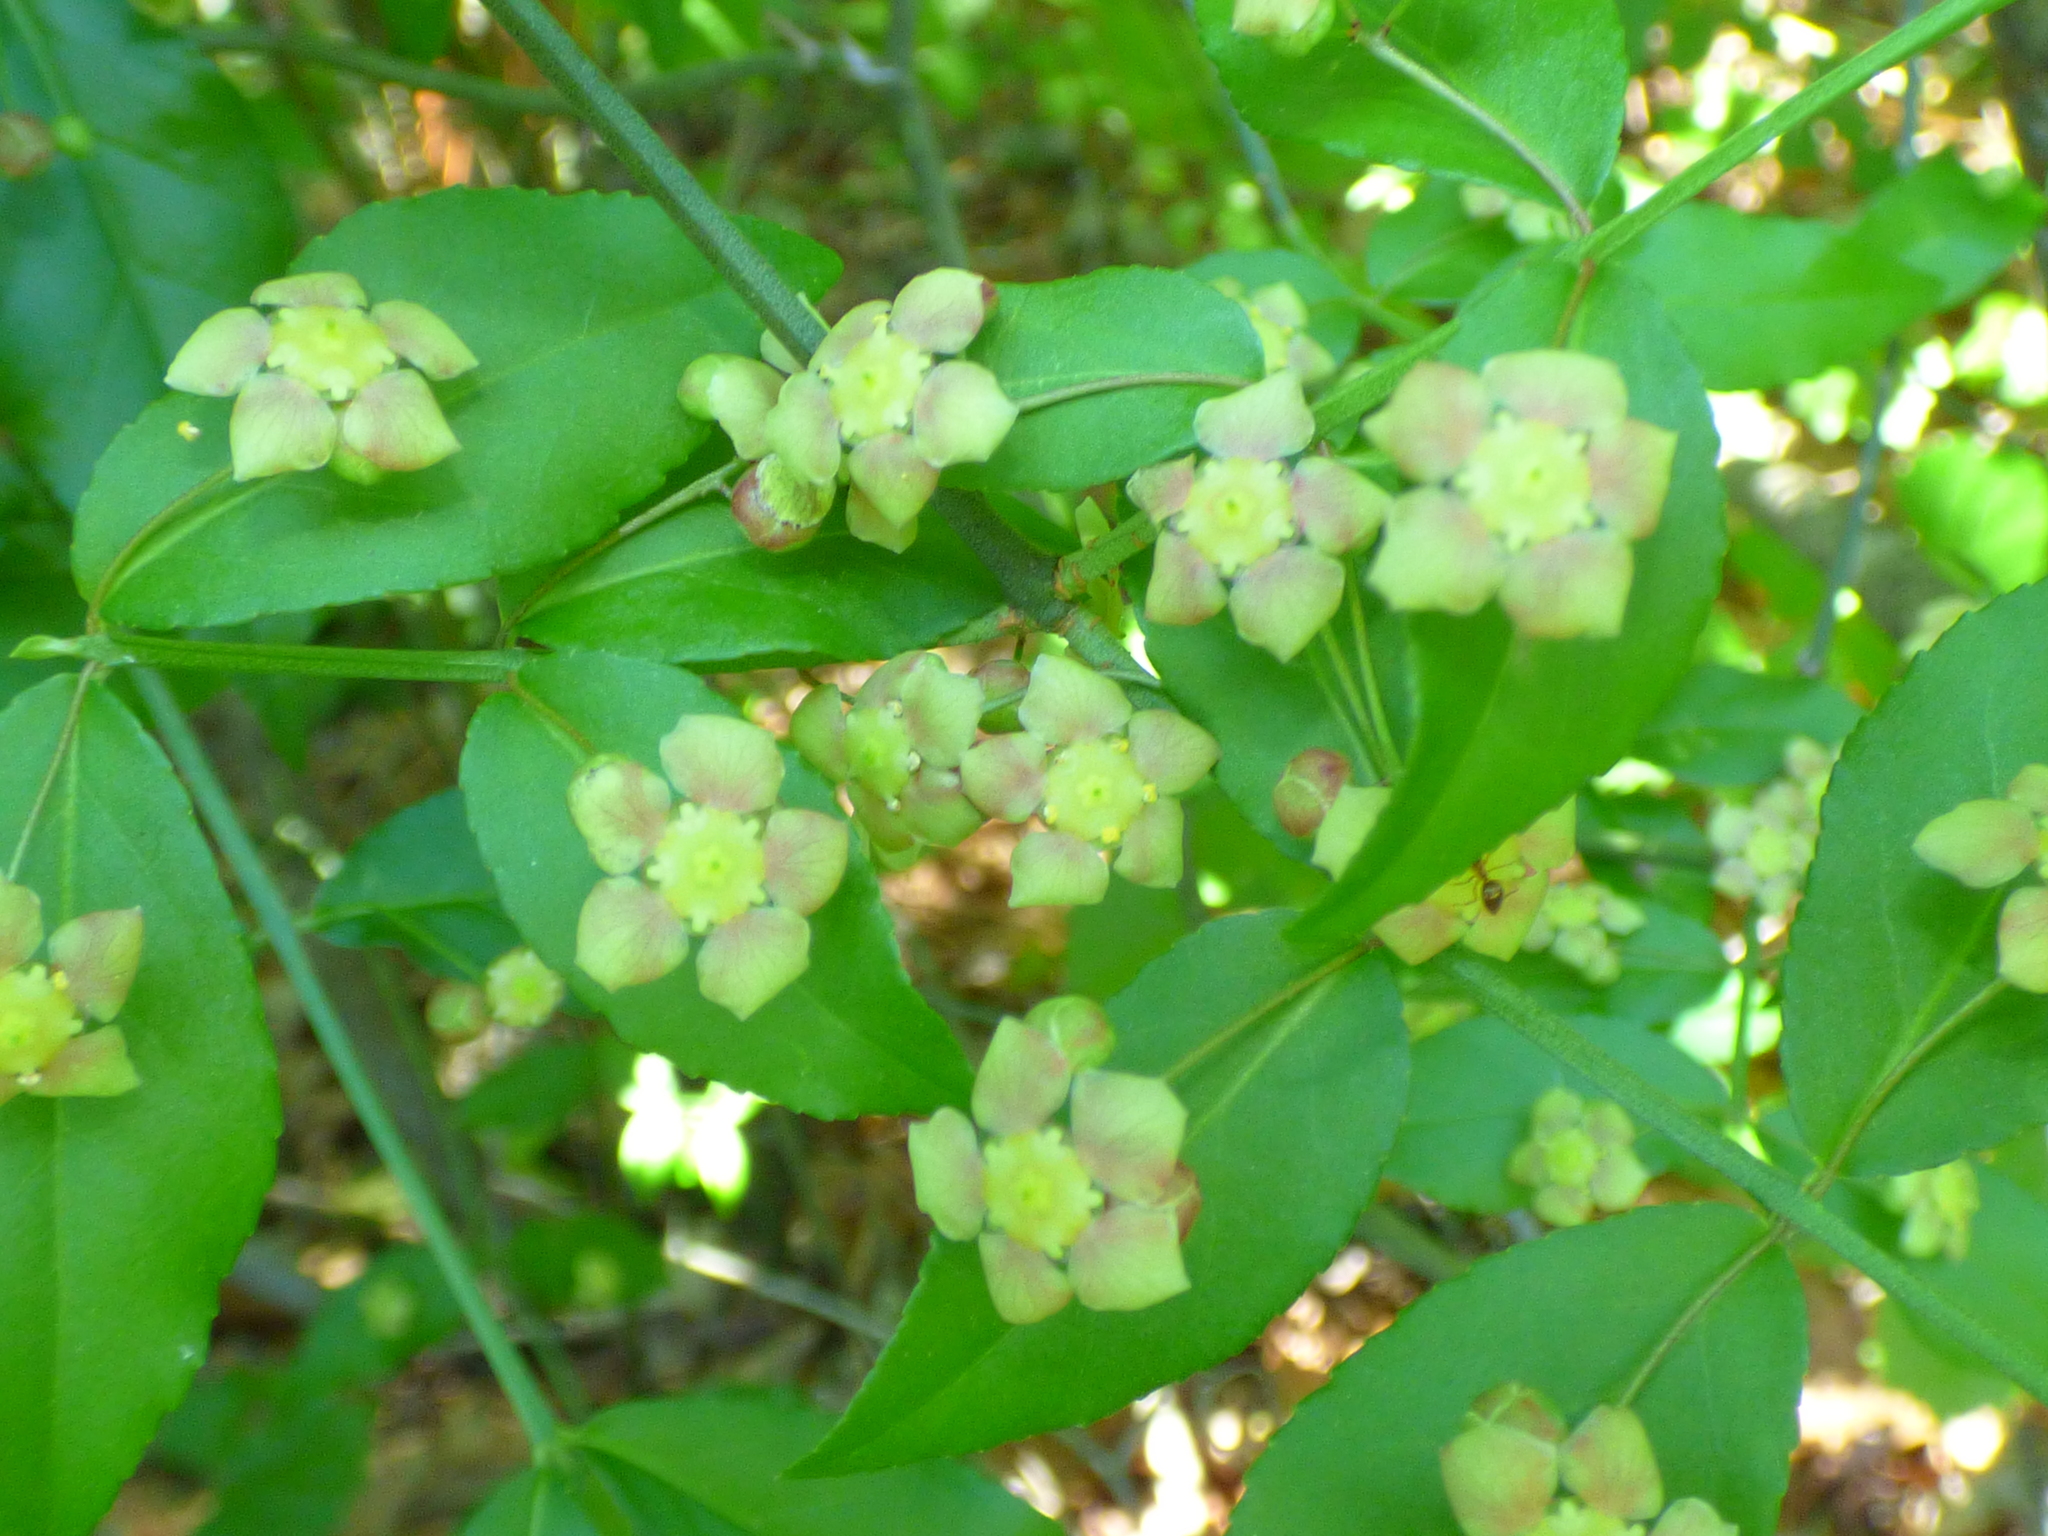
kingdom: Plantae
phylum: Tracheophyta
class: Magnoliopsida
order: Celastrales
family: Celastraceae
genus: Euonymus
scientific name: Euonymus americanus
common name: Bursting-heart
